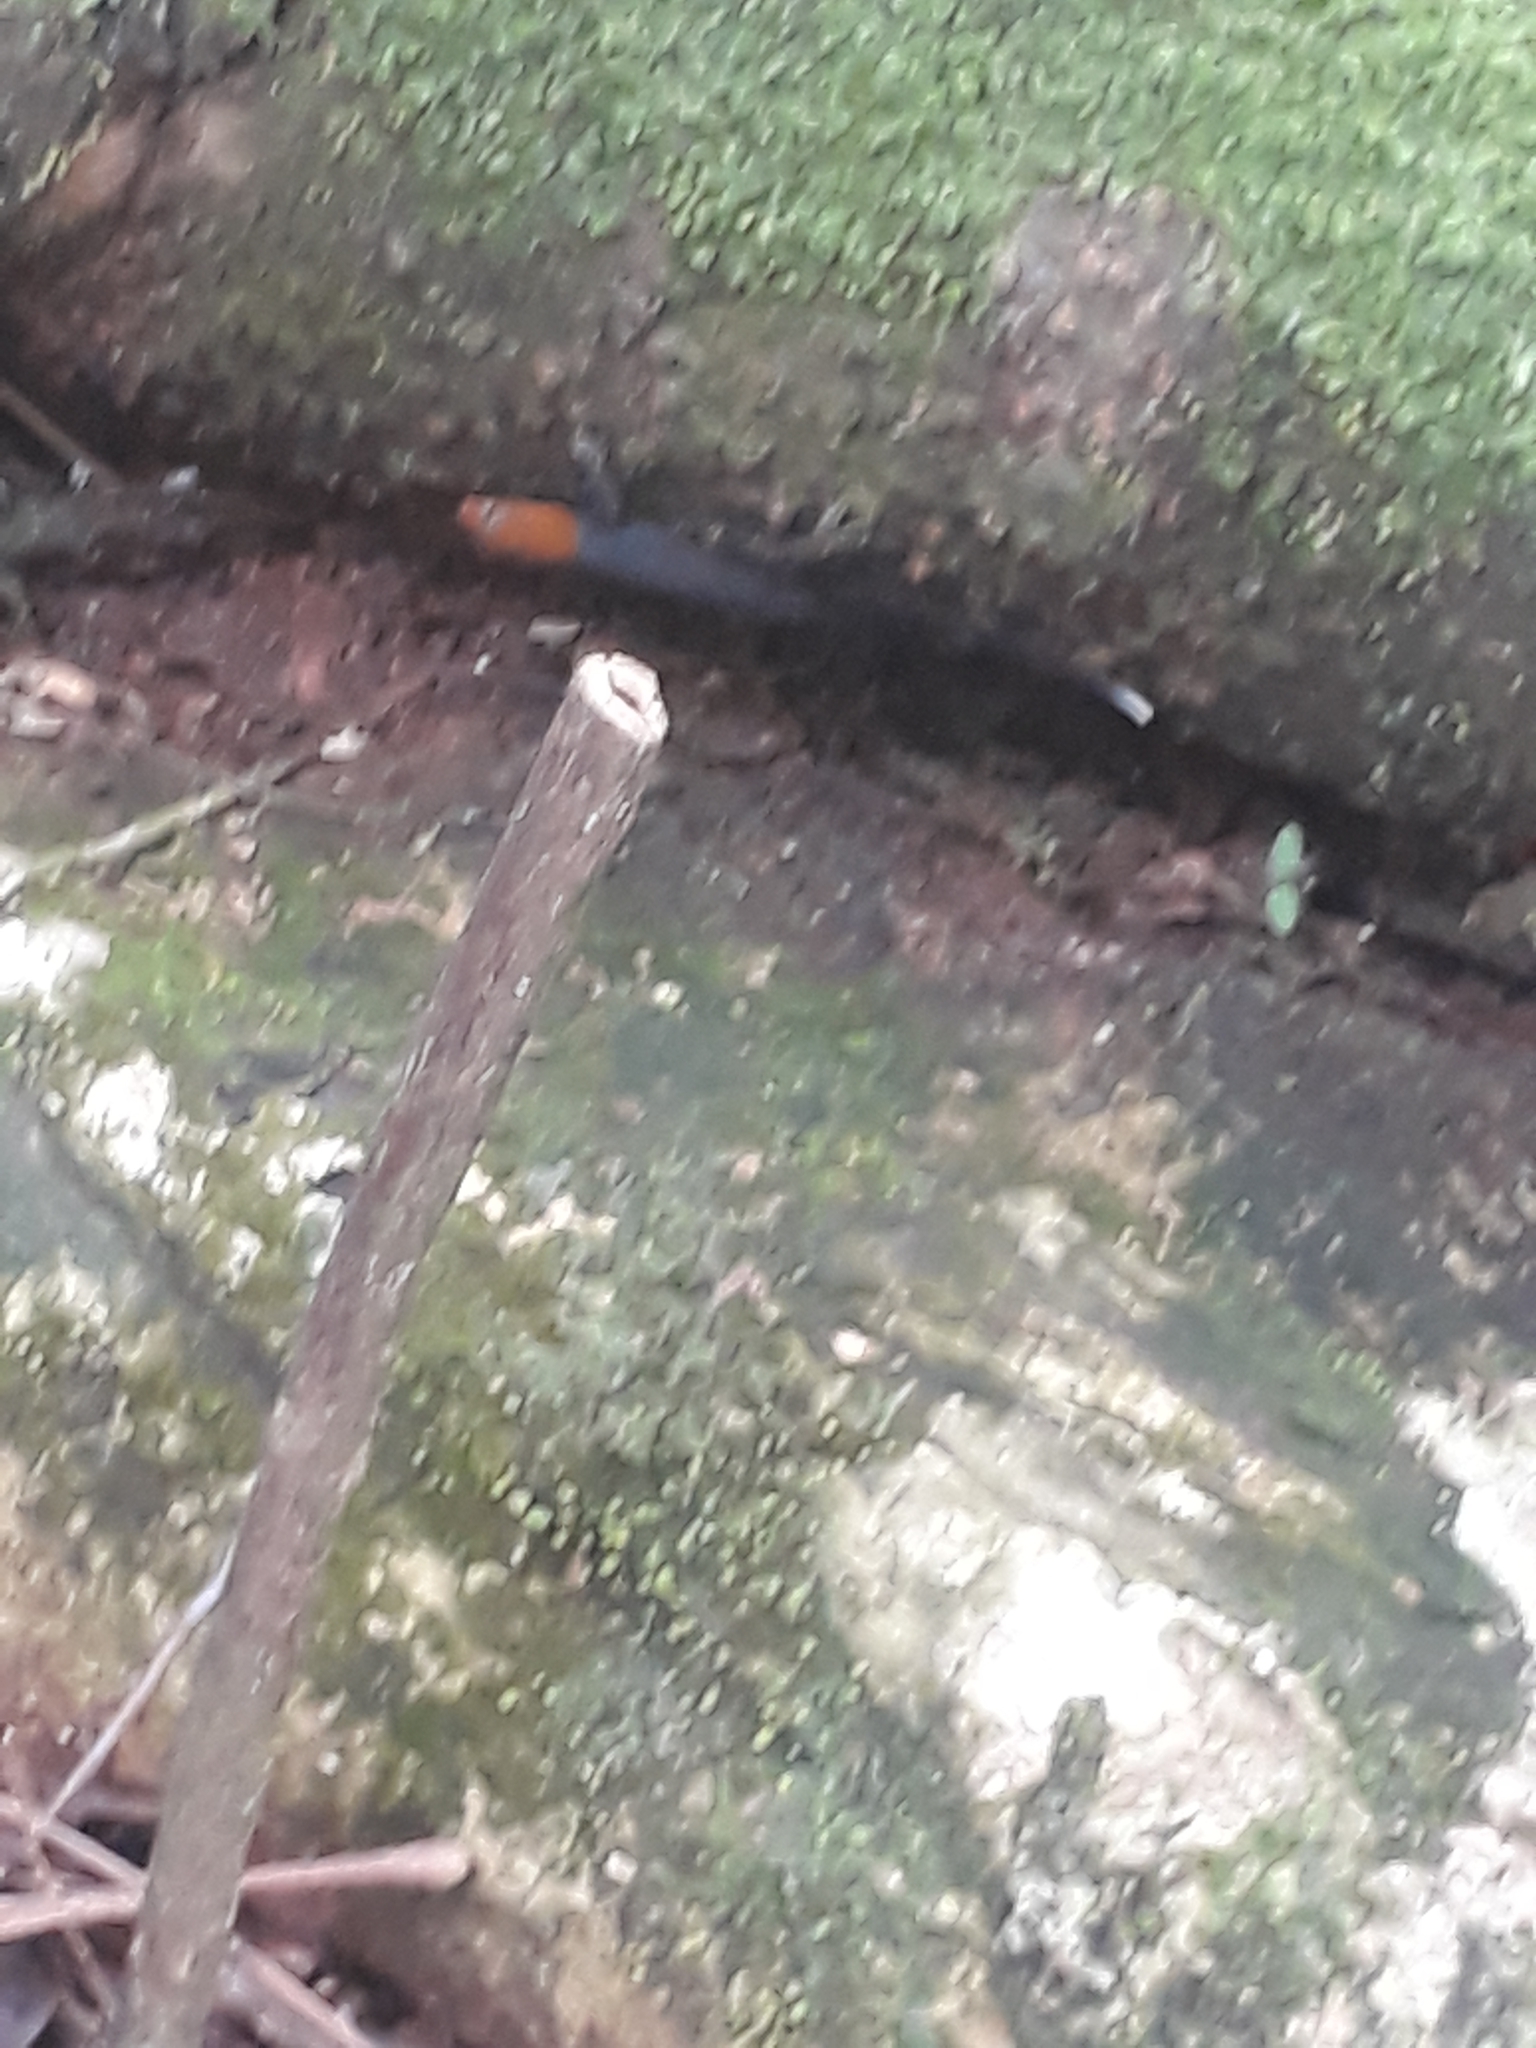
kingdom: Animalia
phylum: Chordata
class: Squamata
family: Sphaerodactylidae
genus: Gonatodes
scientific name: Gonatodes albogularis
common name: Yellow-headed gecko
